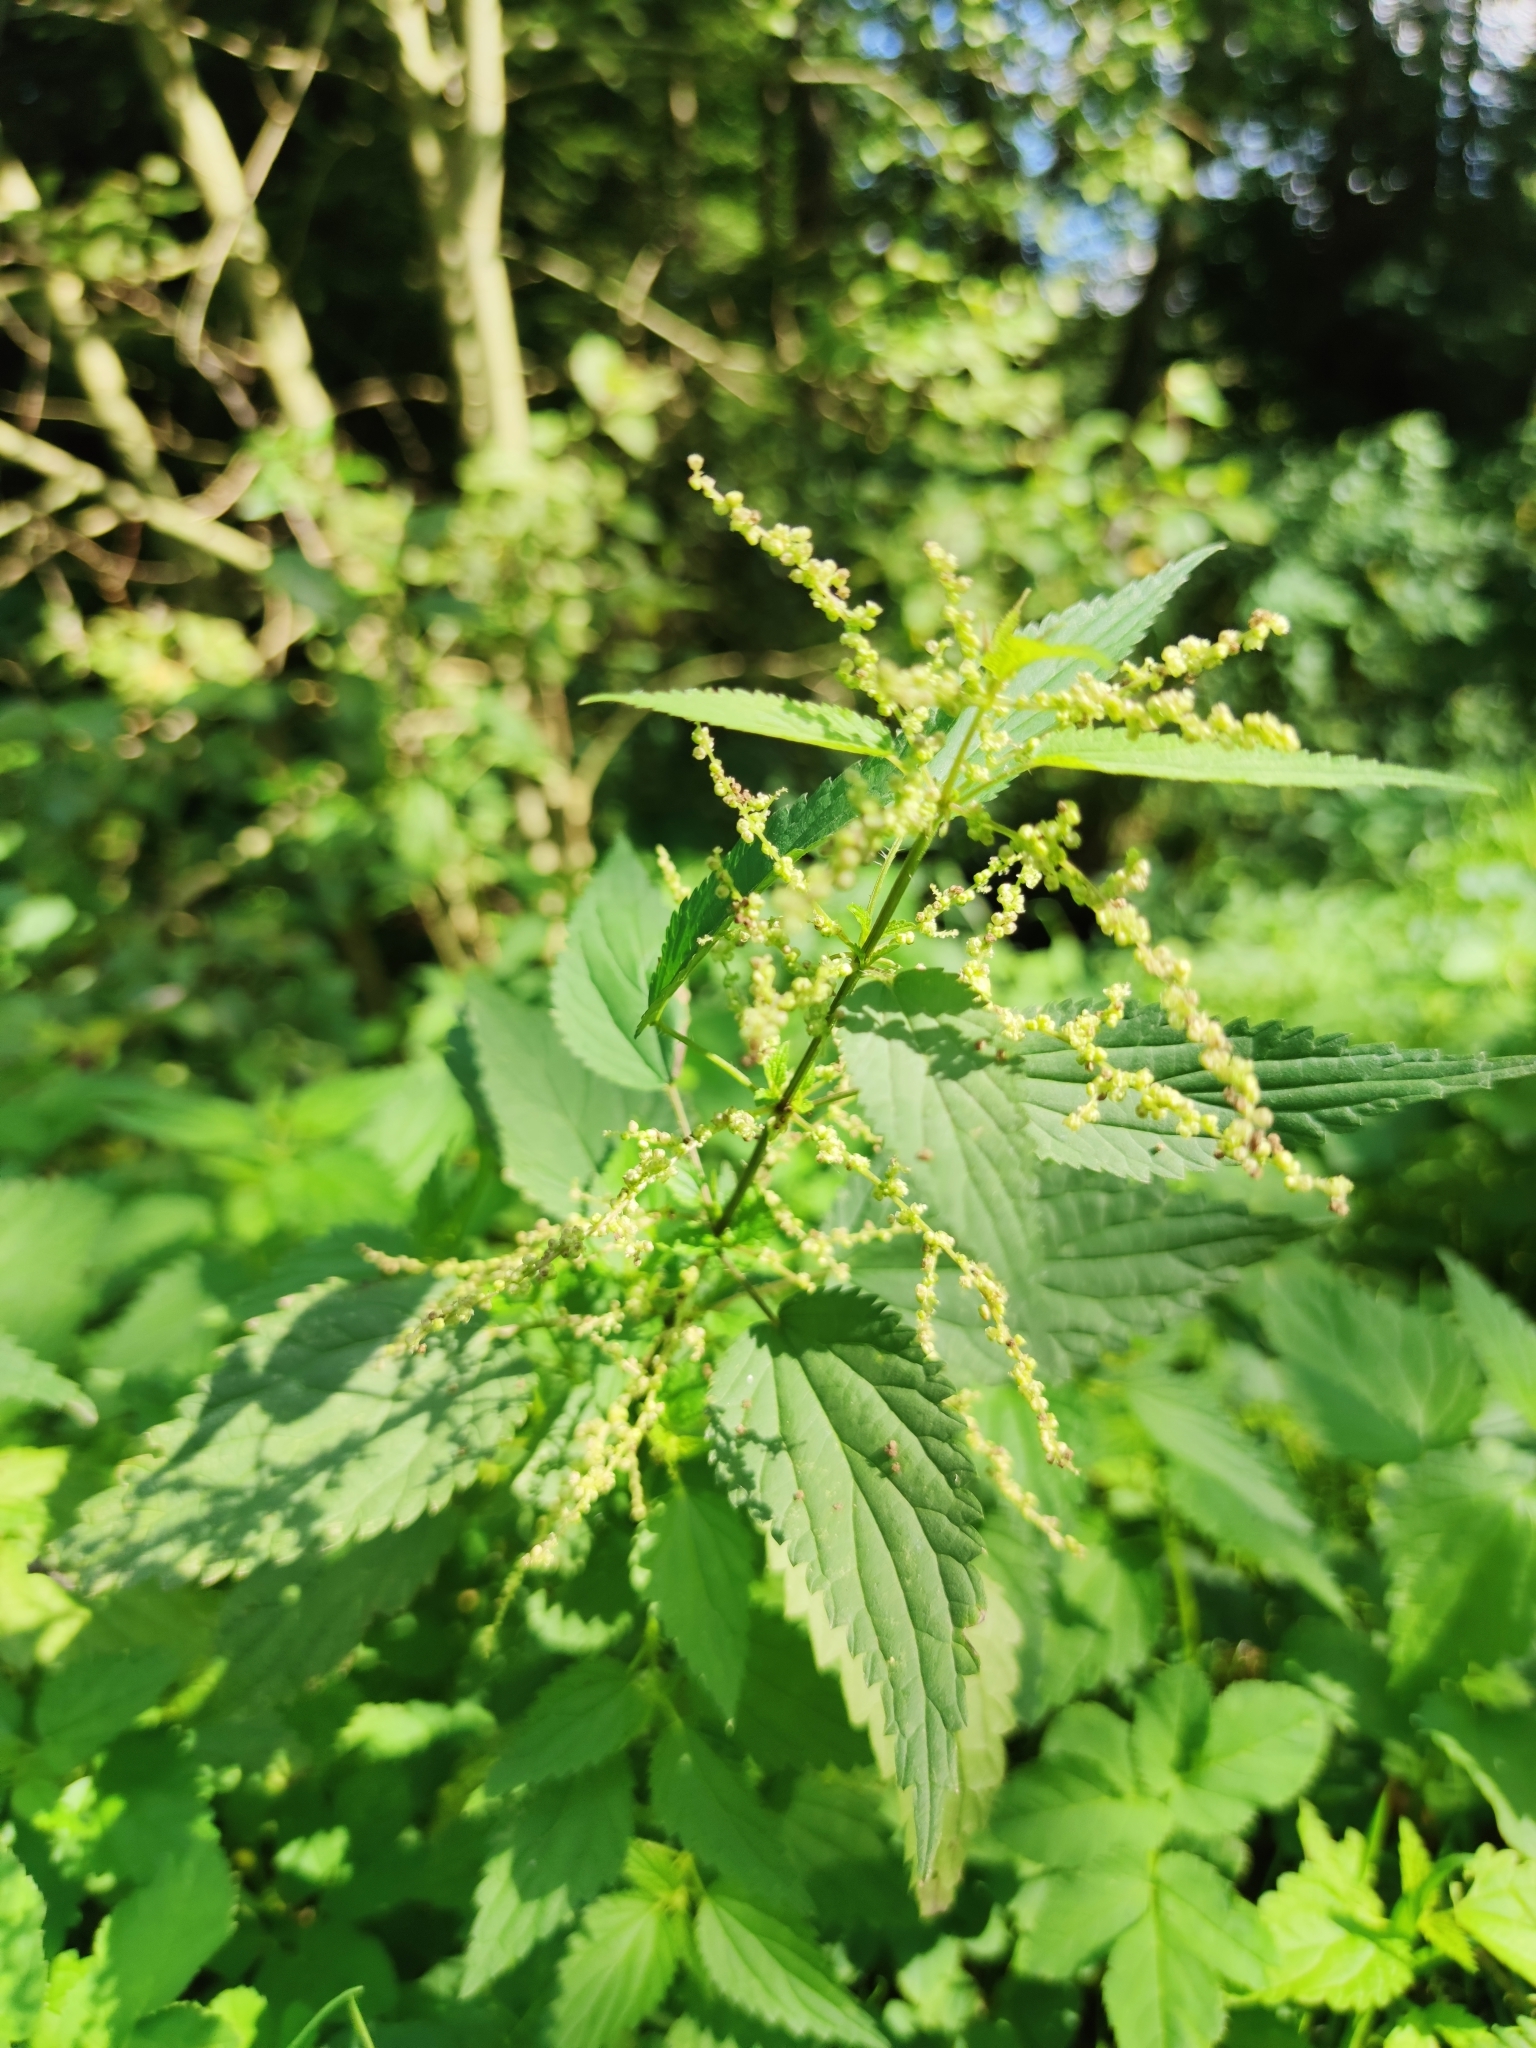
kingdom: Plantae
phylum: Tracheophyta
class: Magnoliopsida
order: Rosales
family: Urticaceae
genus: Urtica
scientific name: Urtica dioica
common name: Common nettle
